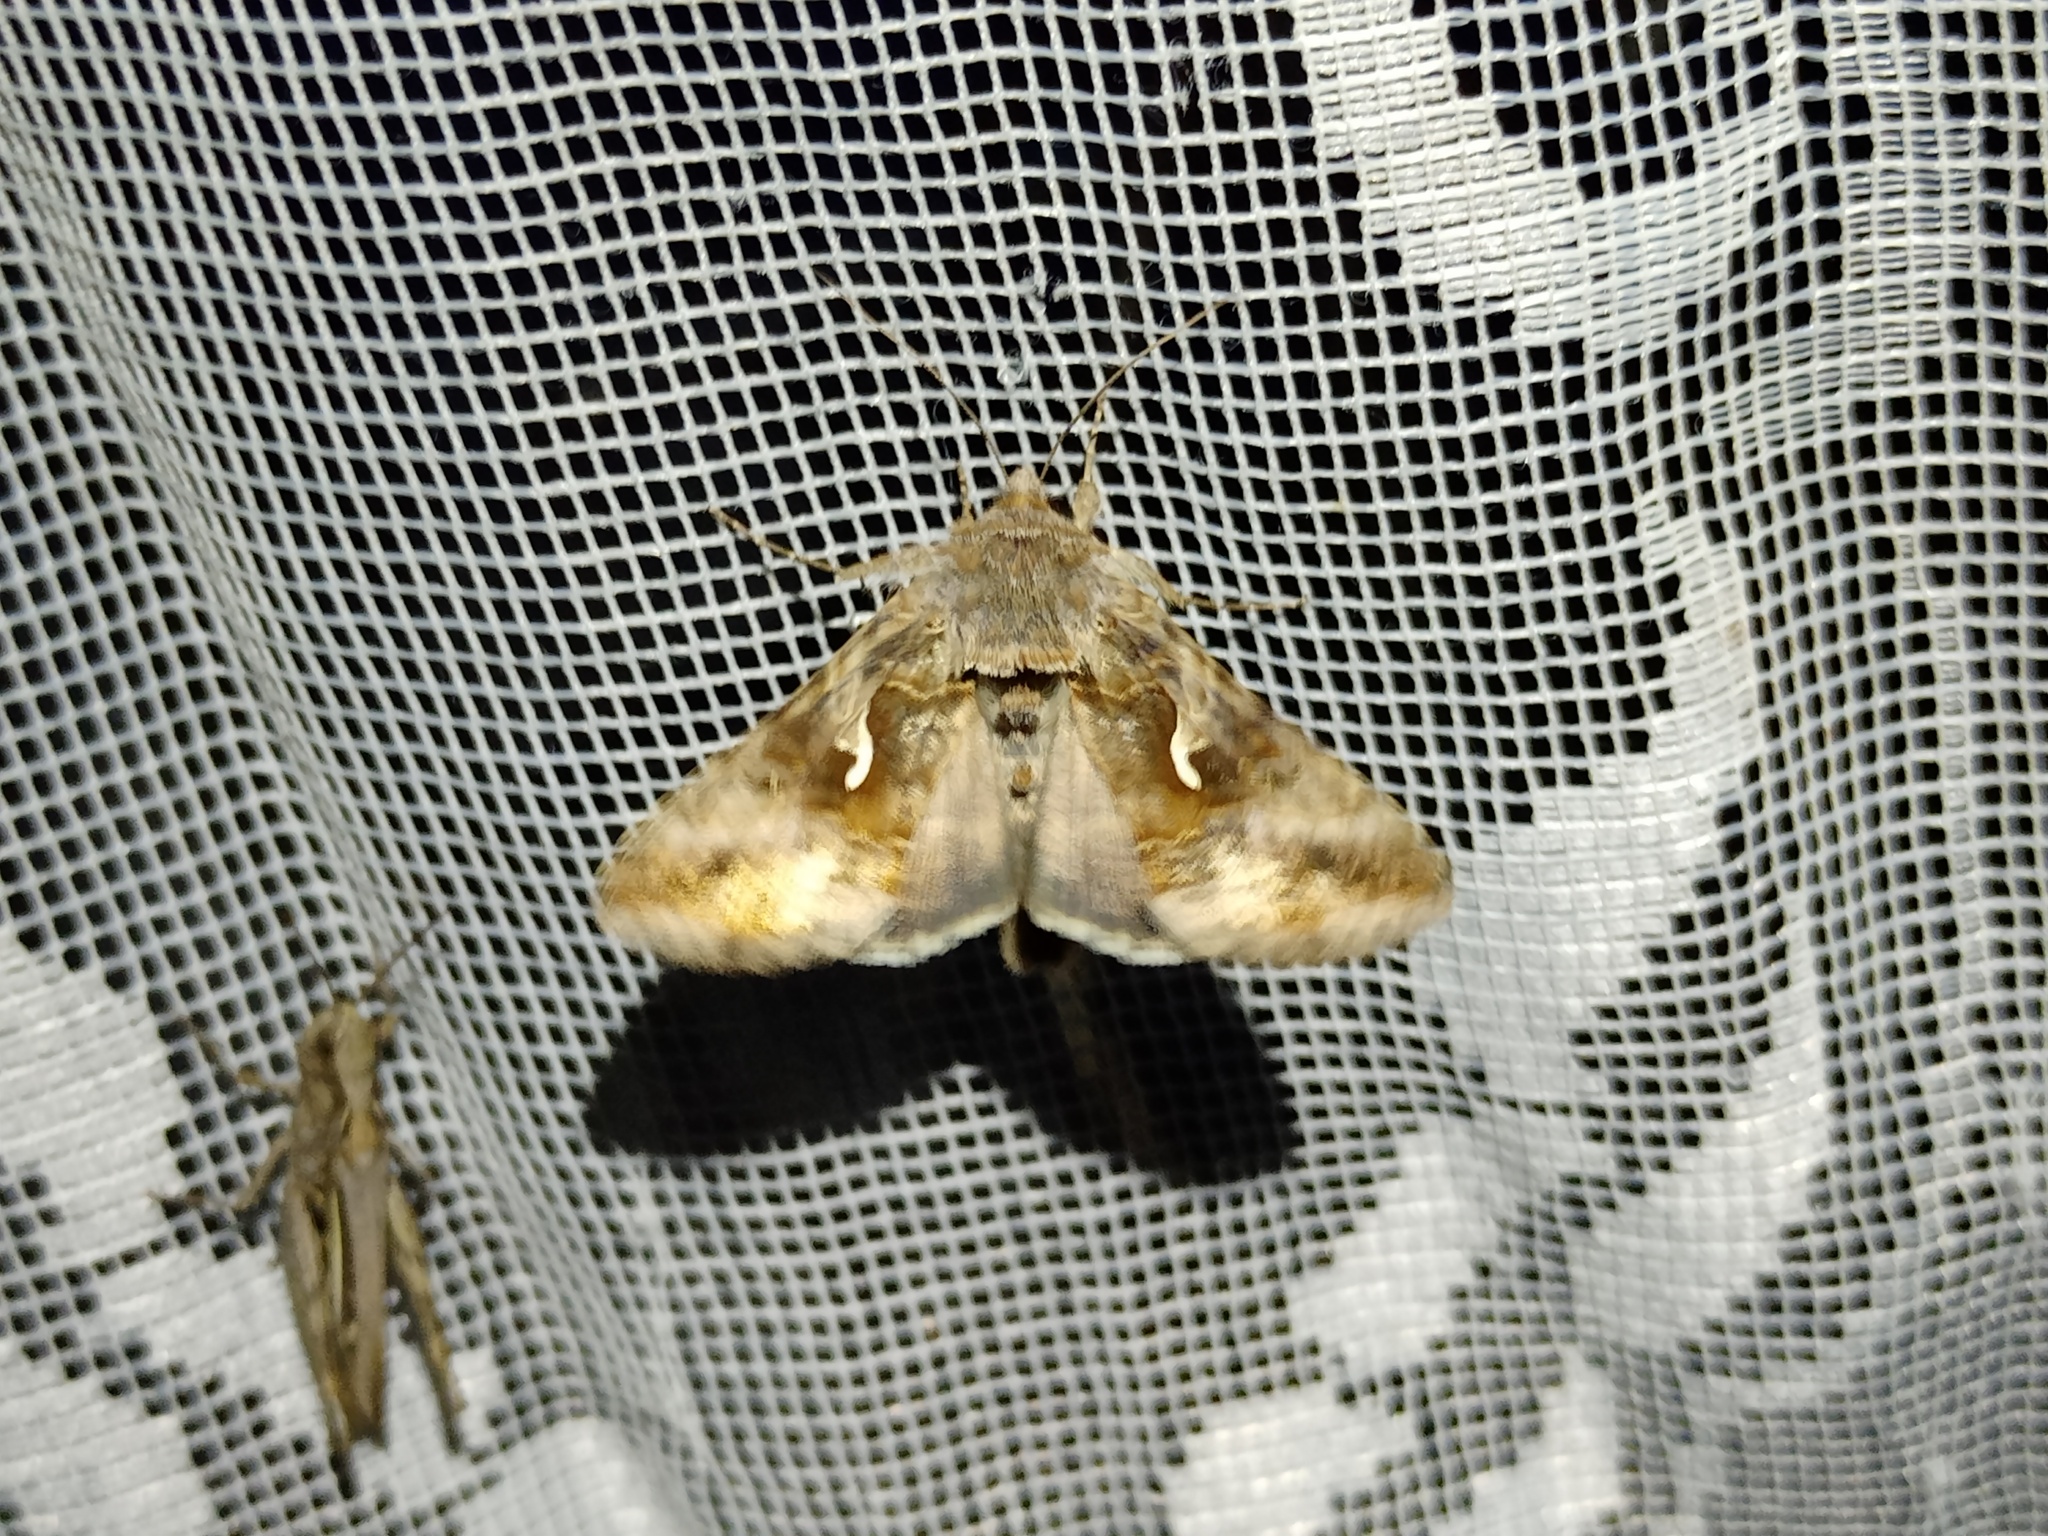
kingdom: Animalia
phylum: Arthropoda
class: Insecta
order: Lepidoptera
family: Noctuidae
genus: Autographa
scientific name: Autographa gamma
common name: Silver y
